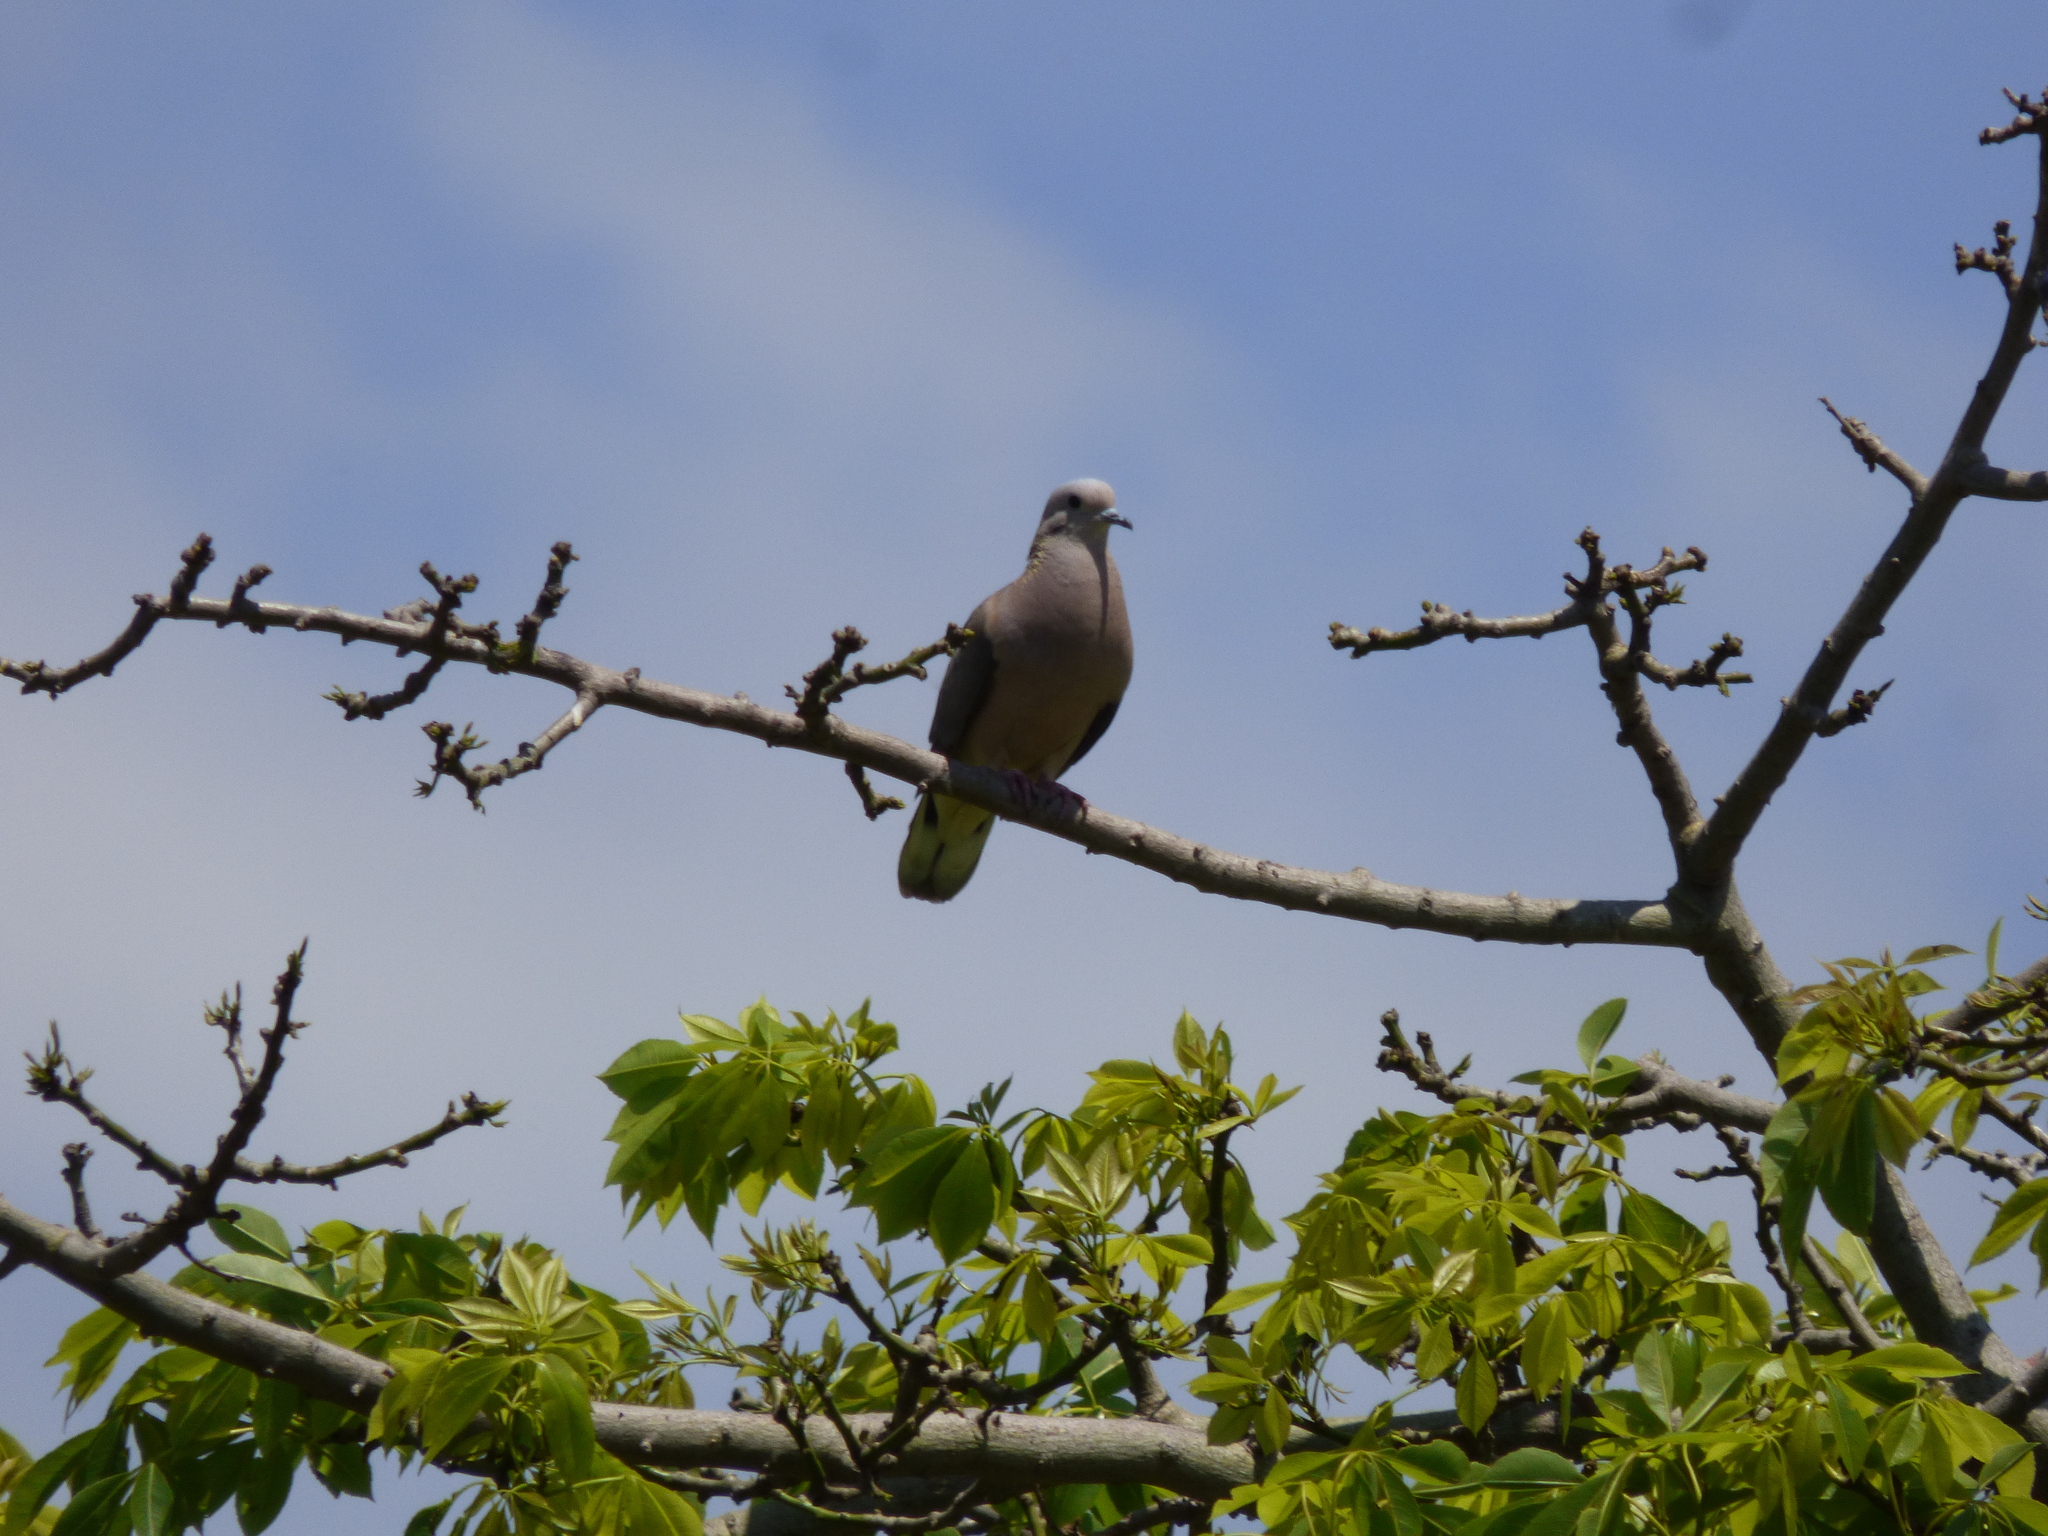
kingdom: Animalia
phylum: Chordata
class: Aves
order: Columbiformes
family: Columbidae
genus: Zenaida
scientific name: Zenaida auriculata
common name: Eared dove
